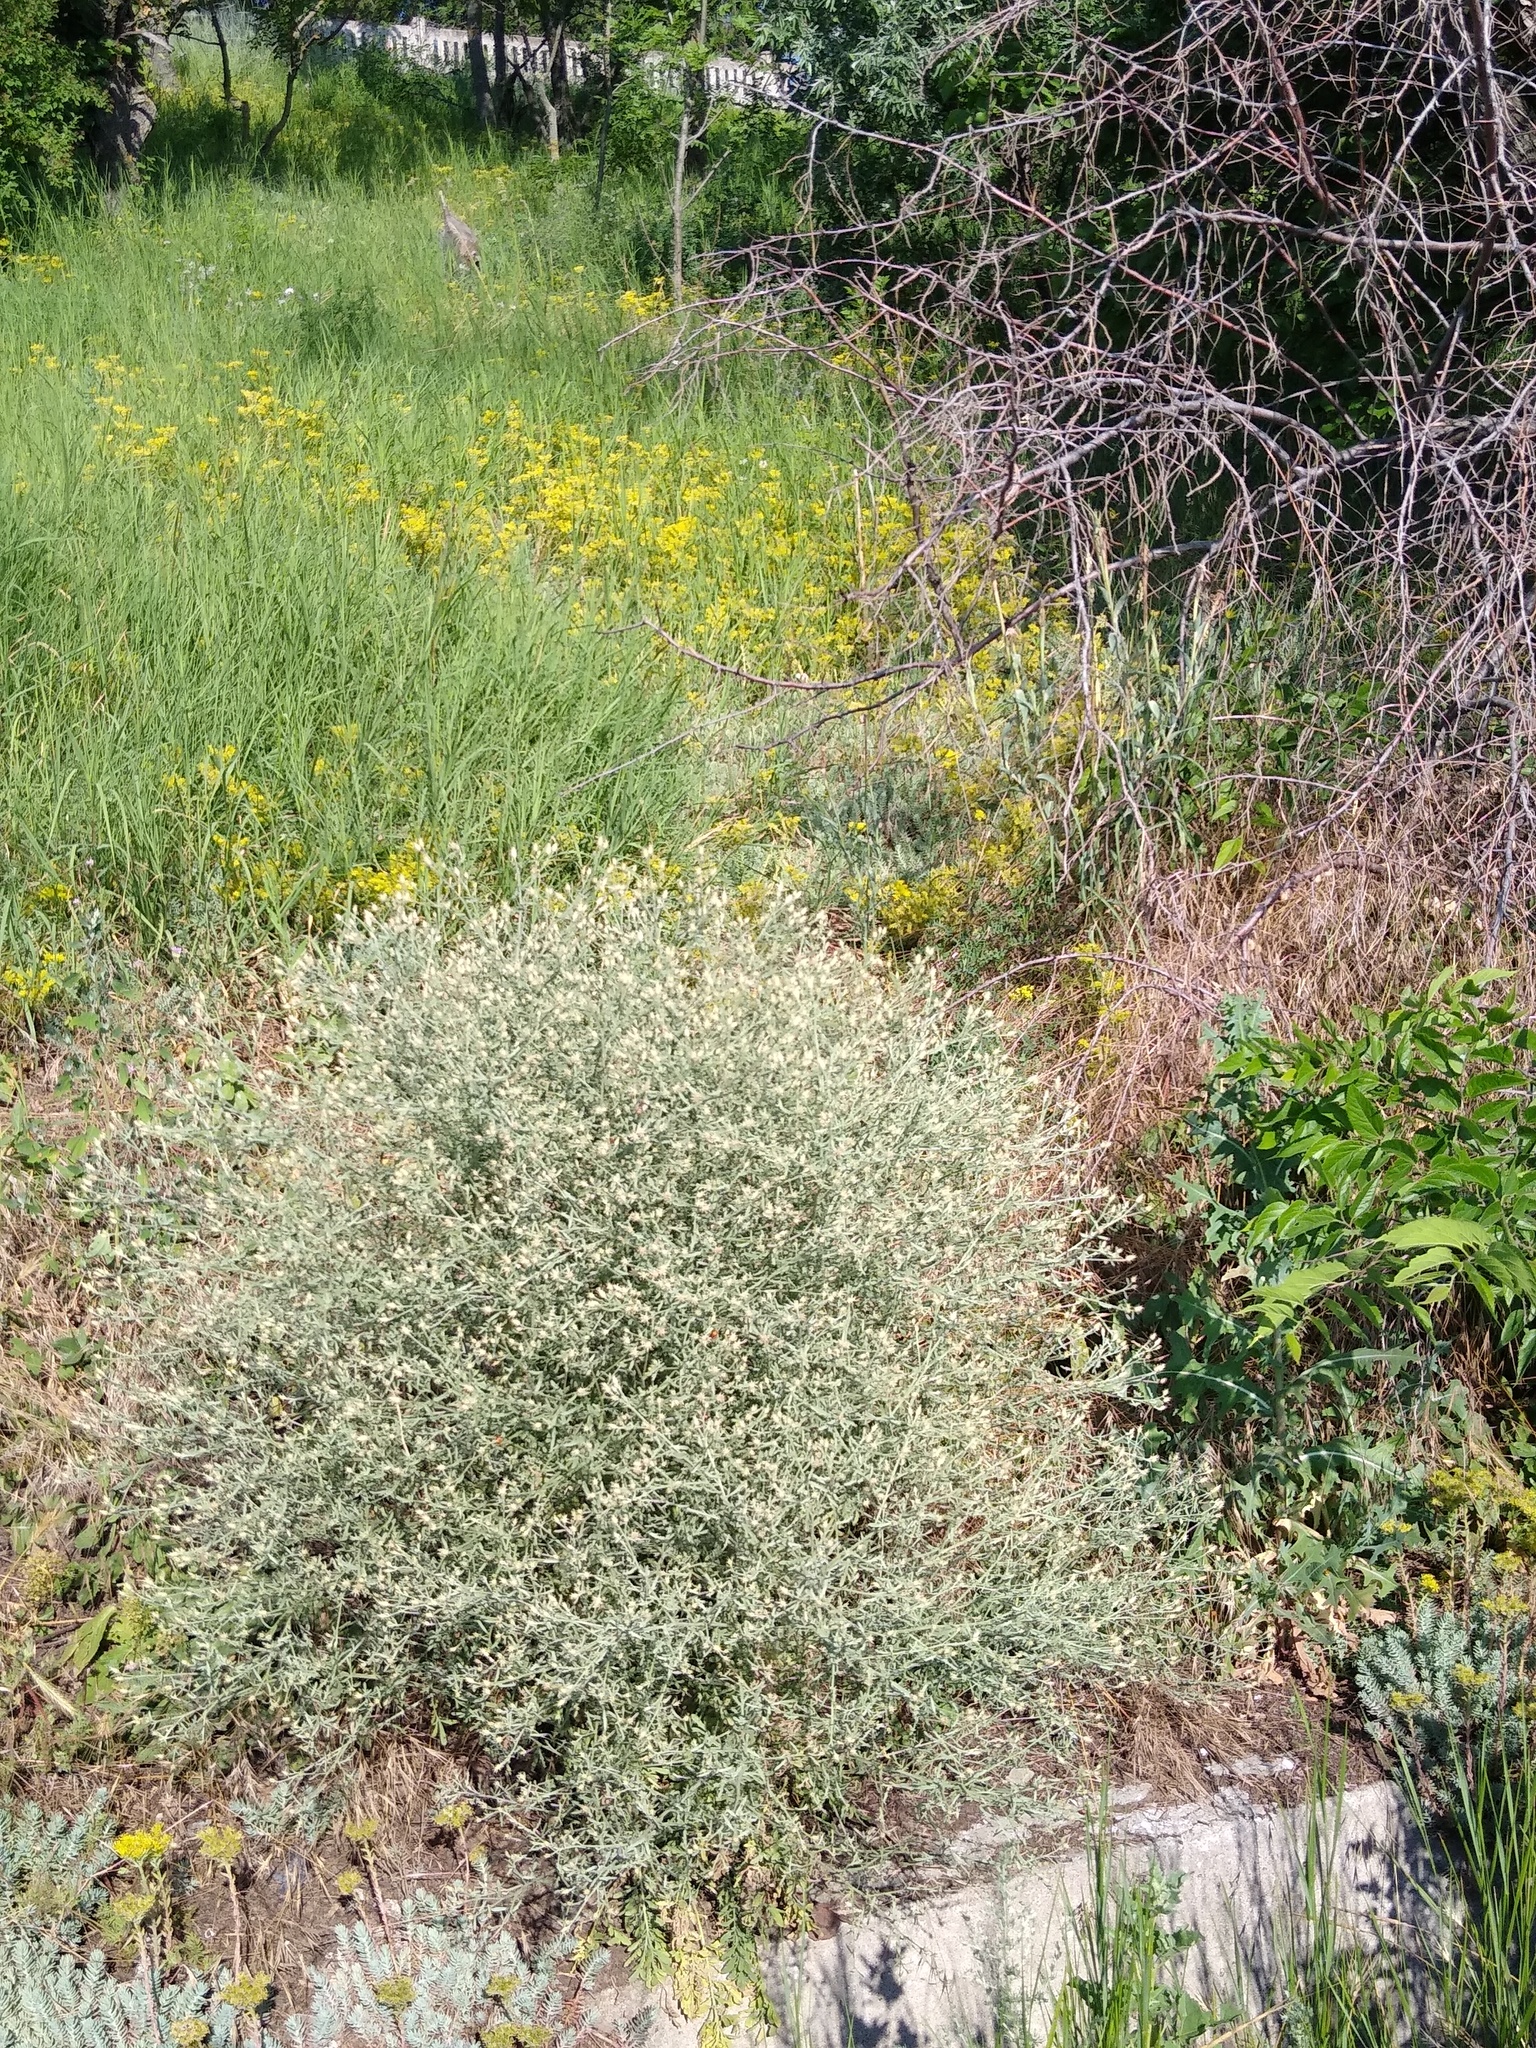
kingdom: Plantae
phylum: Tracheophyta
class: Magnoliopsida
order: Asterales
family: Asteraceae
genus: Centaurea
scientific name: Centaurea diffusa
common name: Diffuse knapweed
